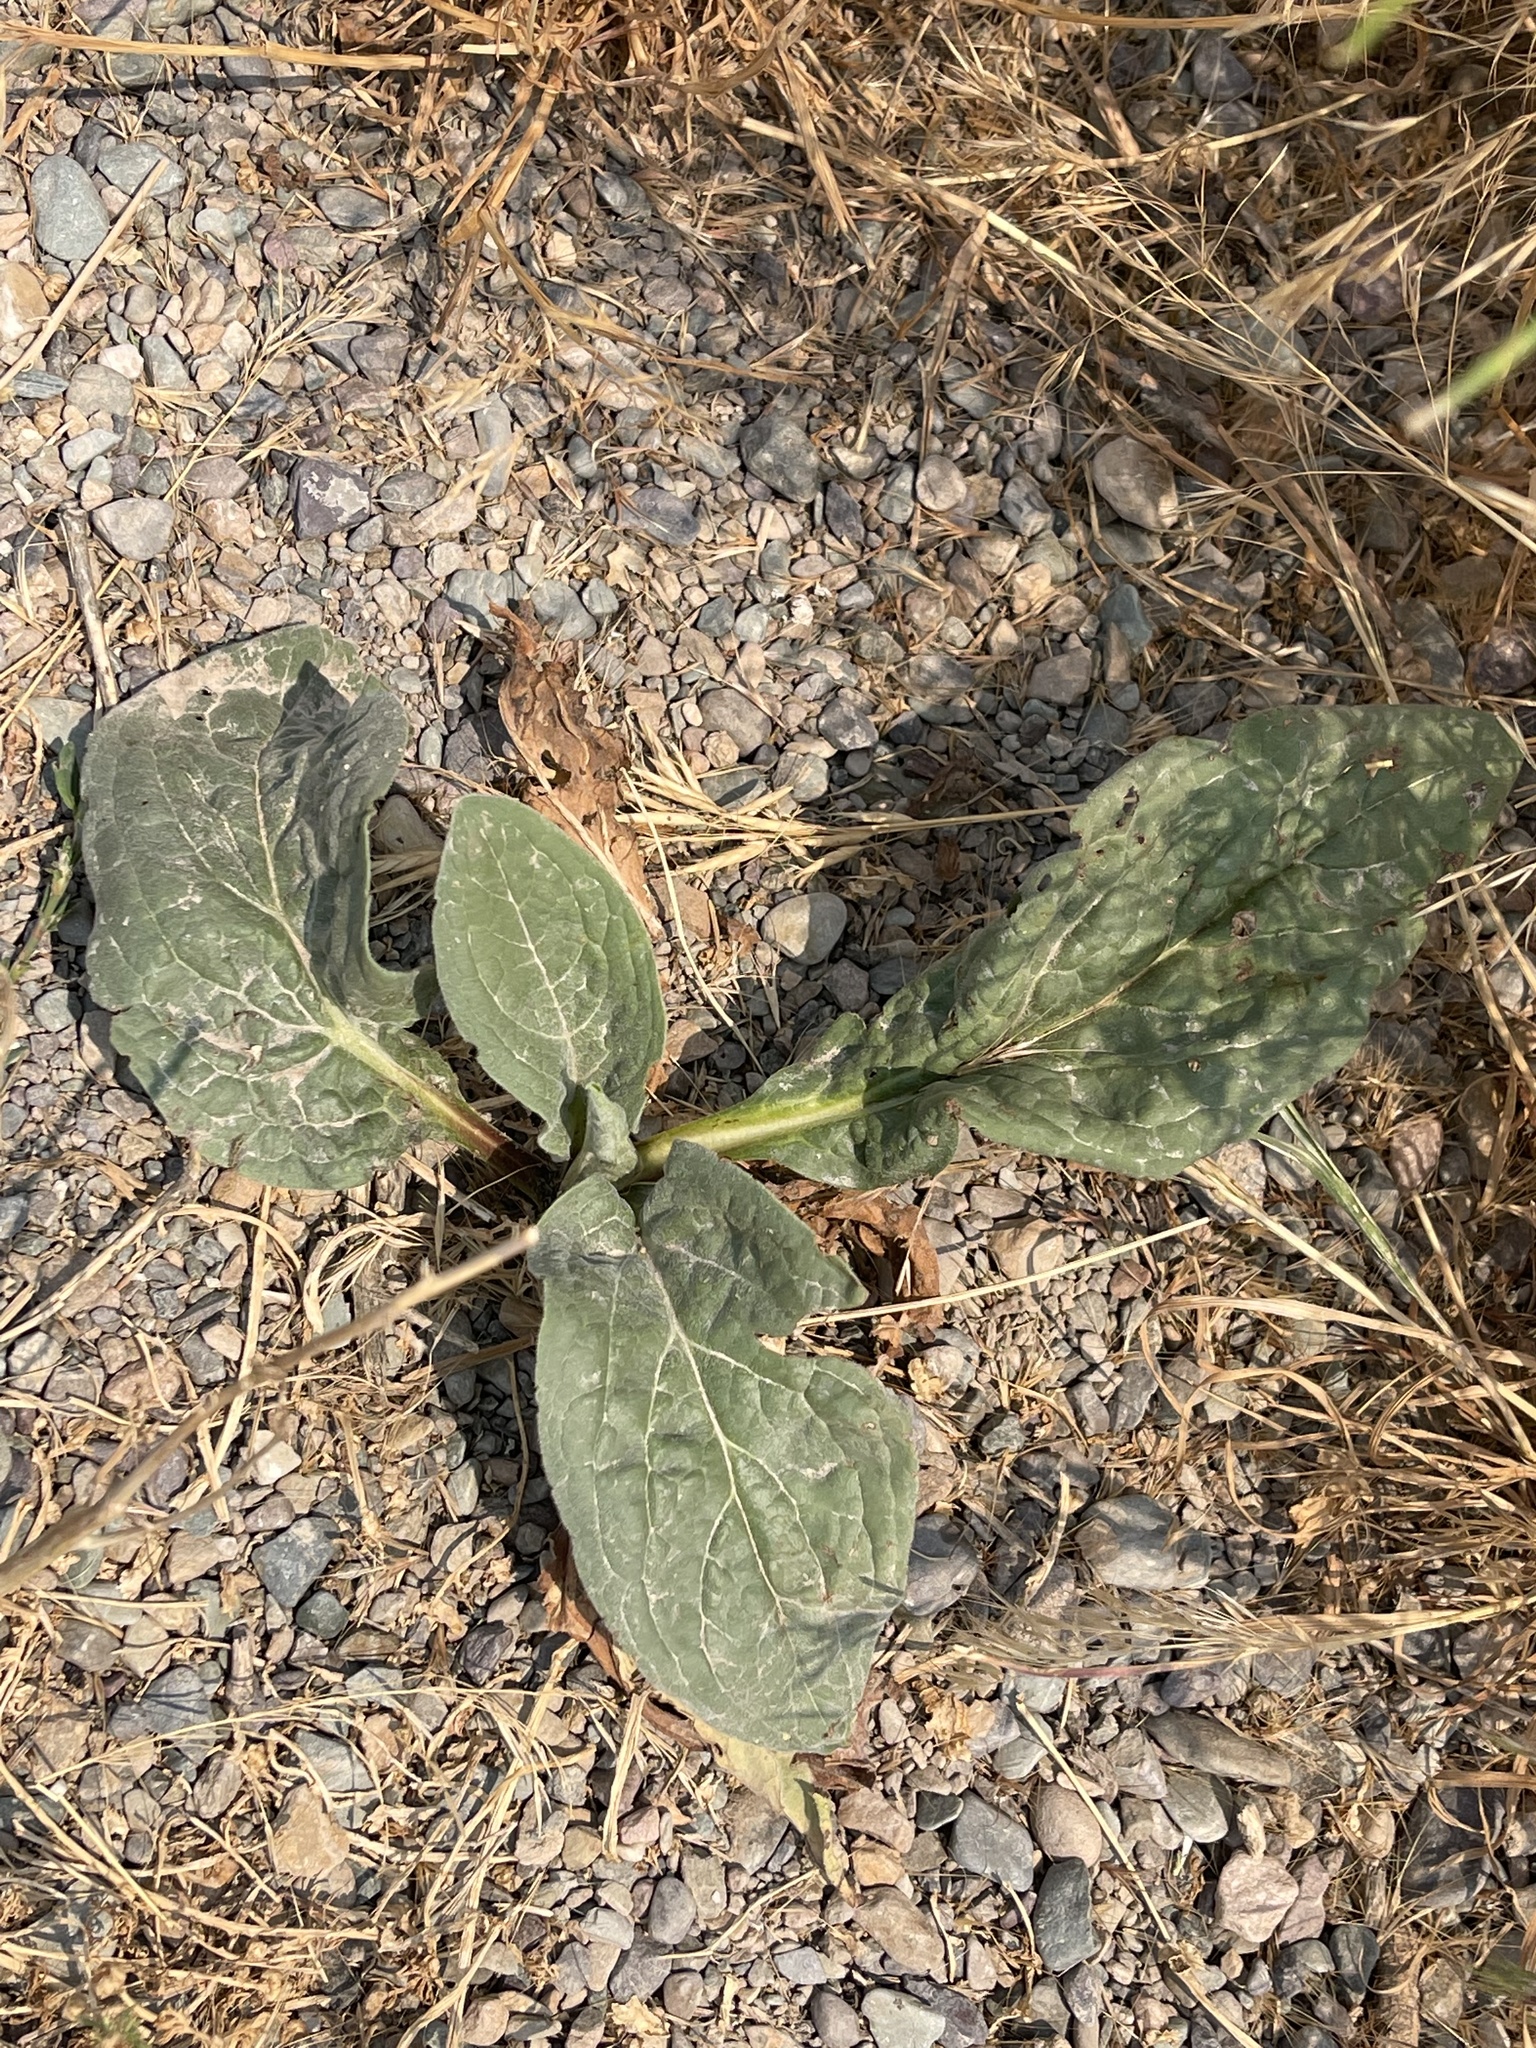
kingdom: Plantae
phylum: Tracheophyta
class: Magnoliopsida
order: Boraginales
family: Boraginaceae
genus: Cynoglossum
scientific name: Cynoglossum officinale
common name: Hound's-tongue
